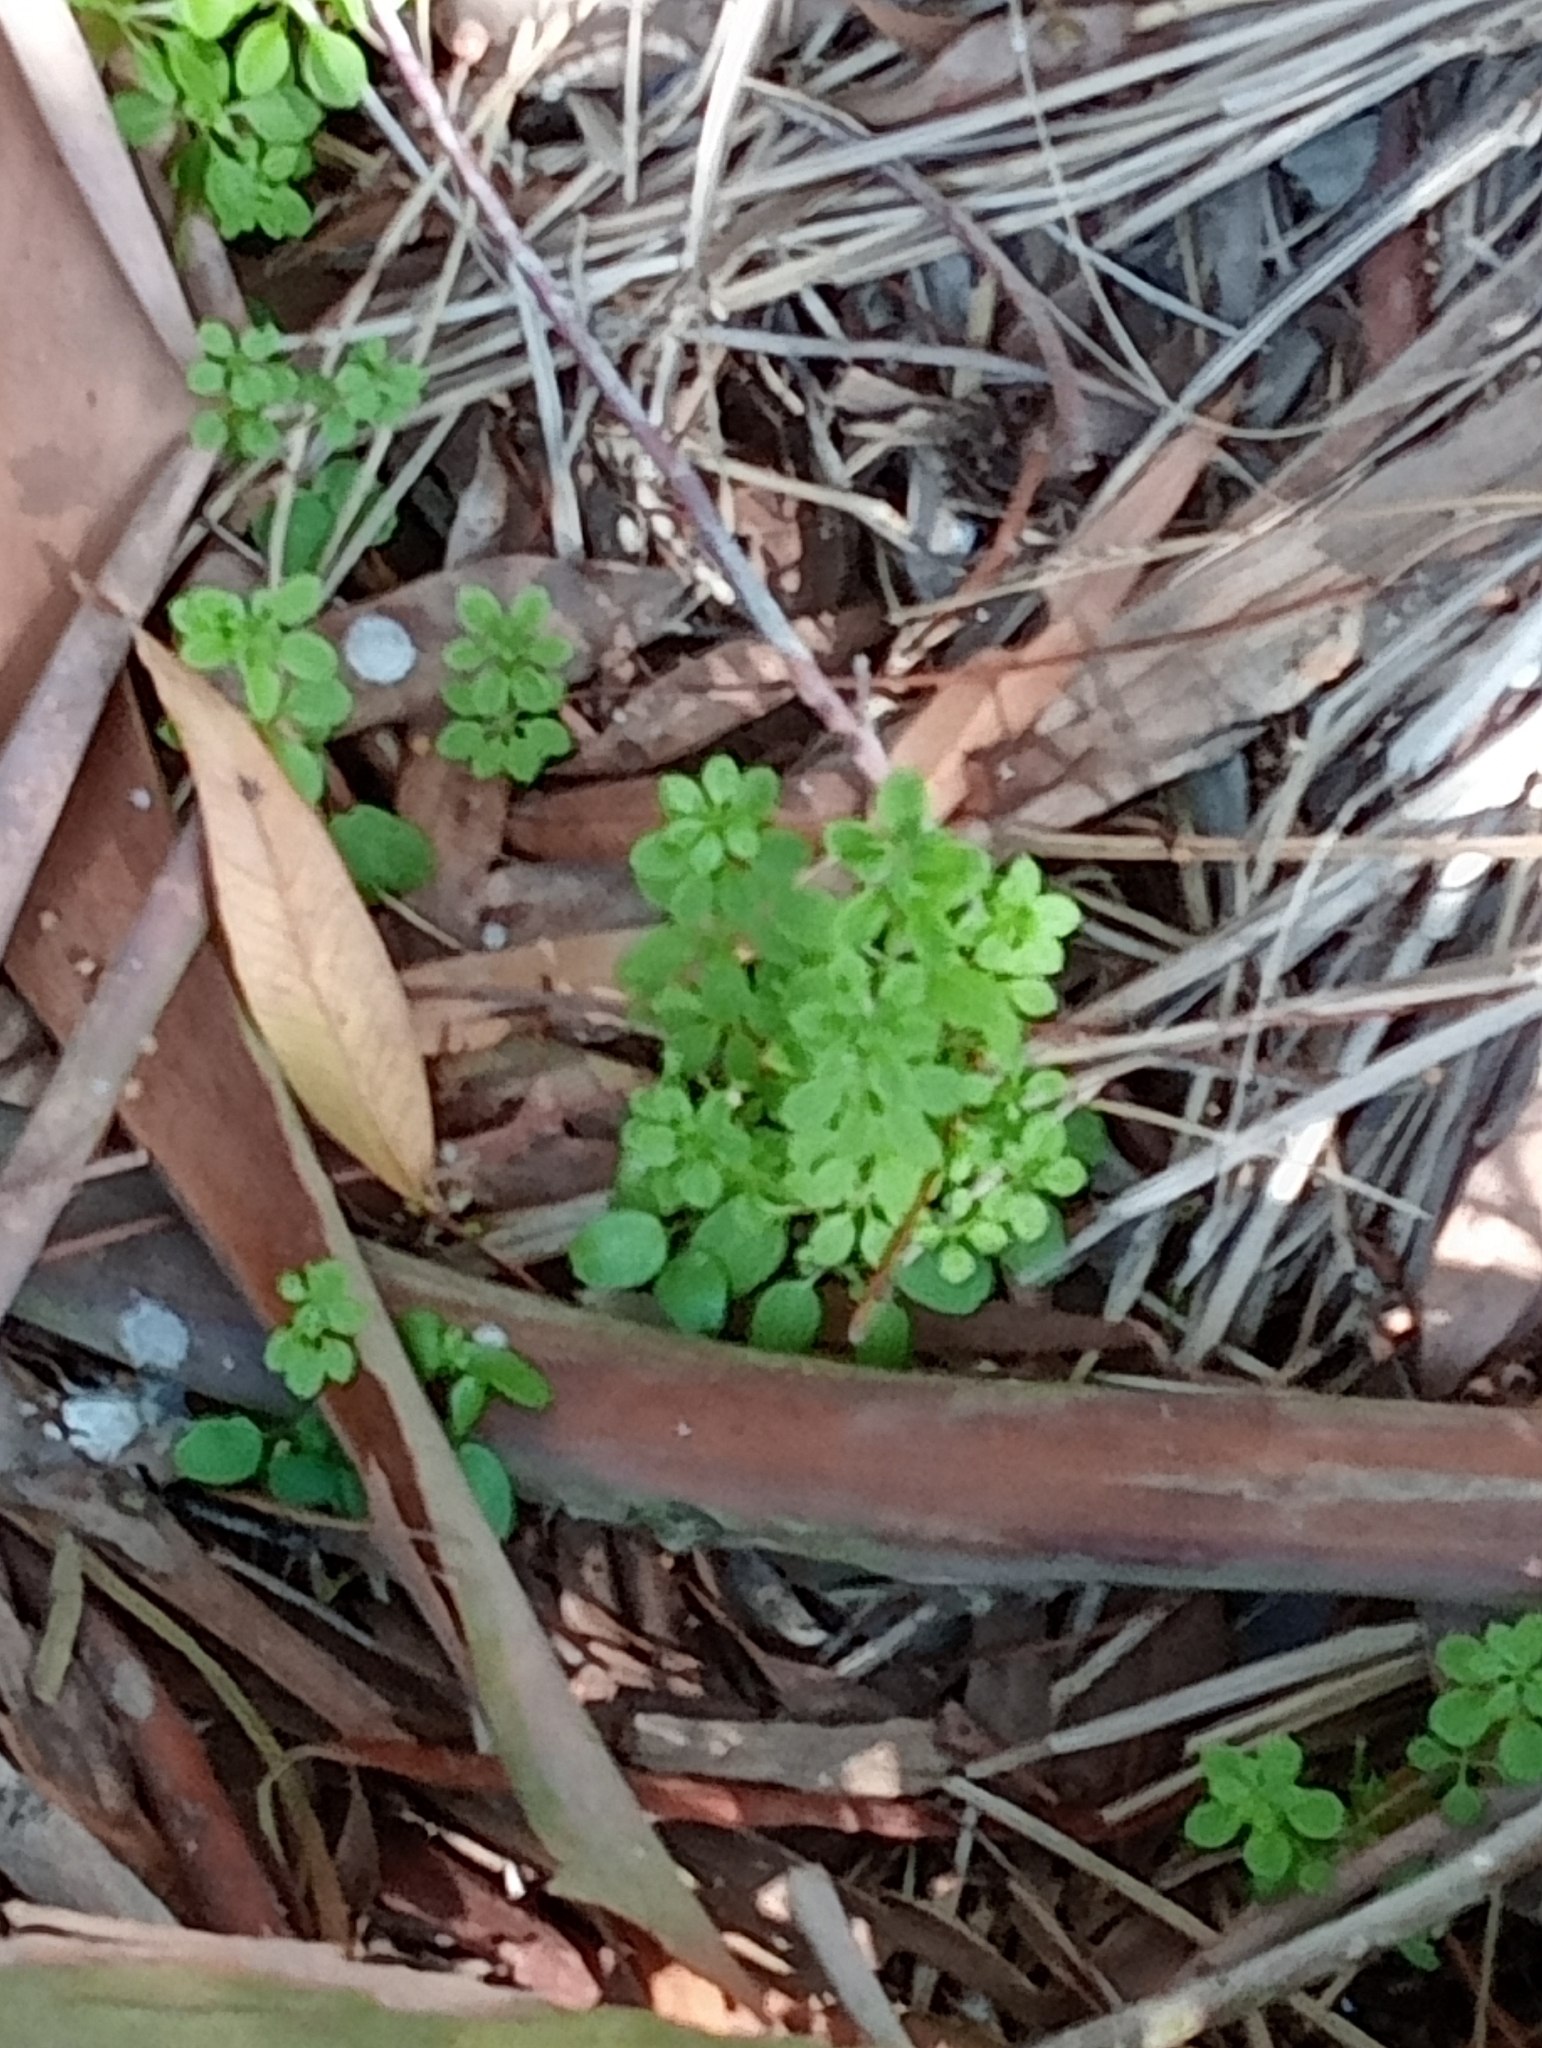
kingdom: Plantae
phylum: Tracheophyta
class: Magnoliopsida
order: Malpighiales
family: Euphorbiaceae
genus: Euphorbia
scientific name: Euphorbia peplus
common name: Petty spurge
